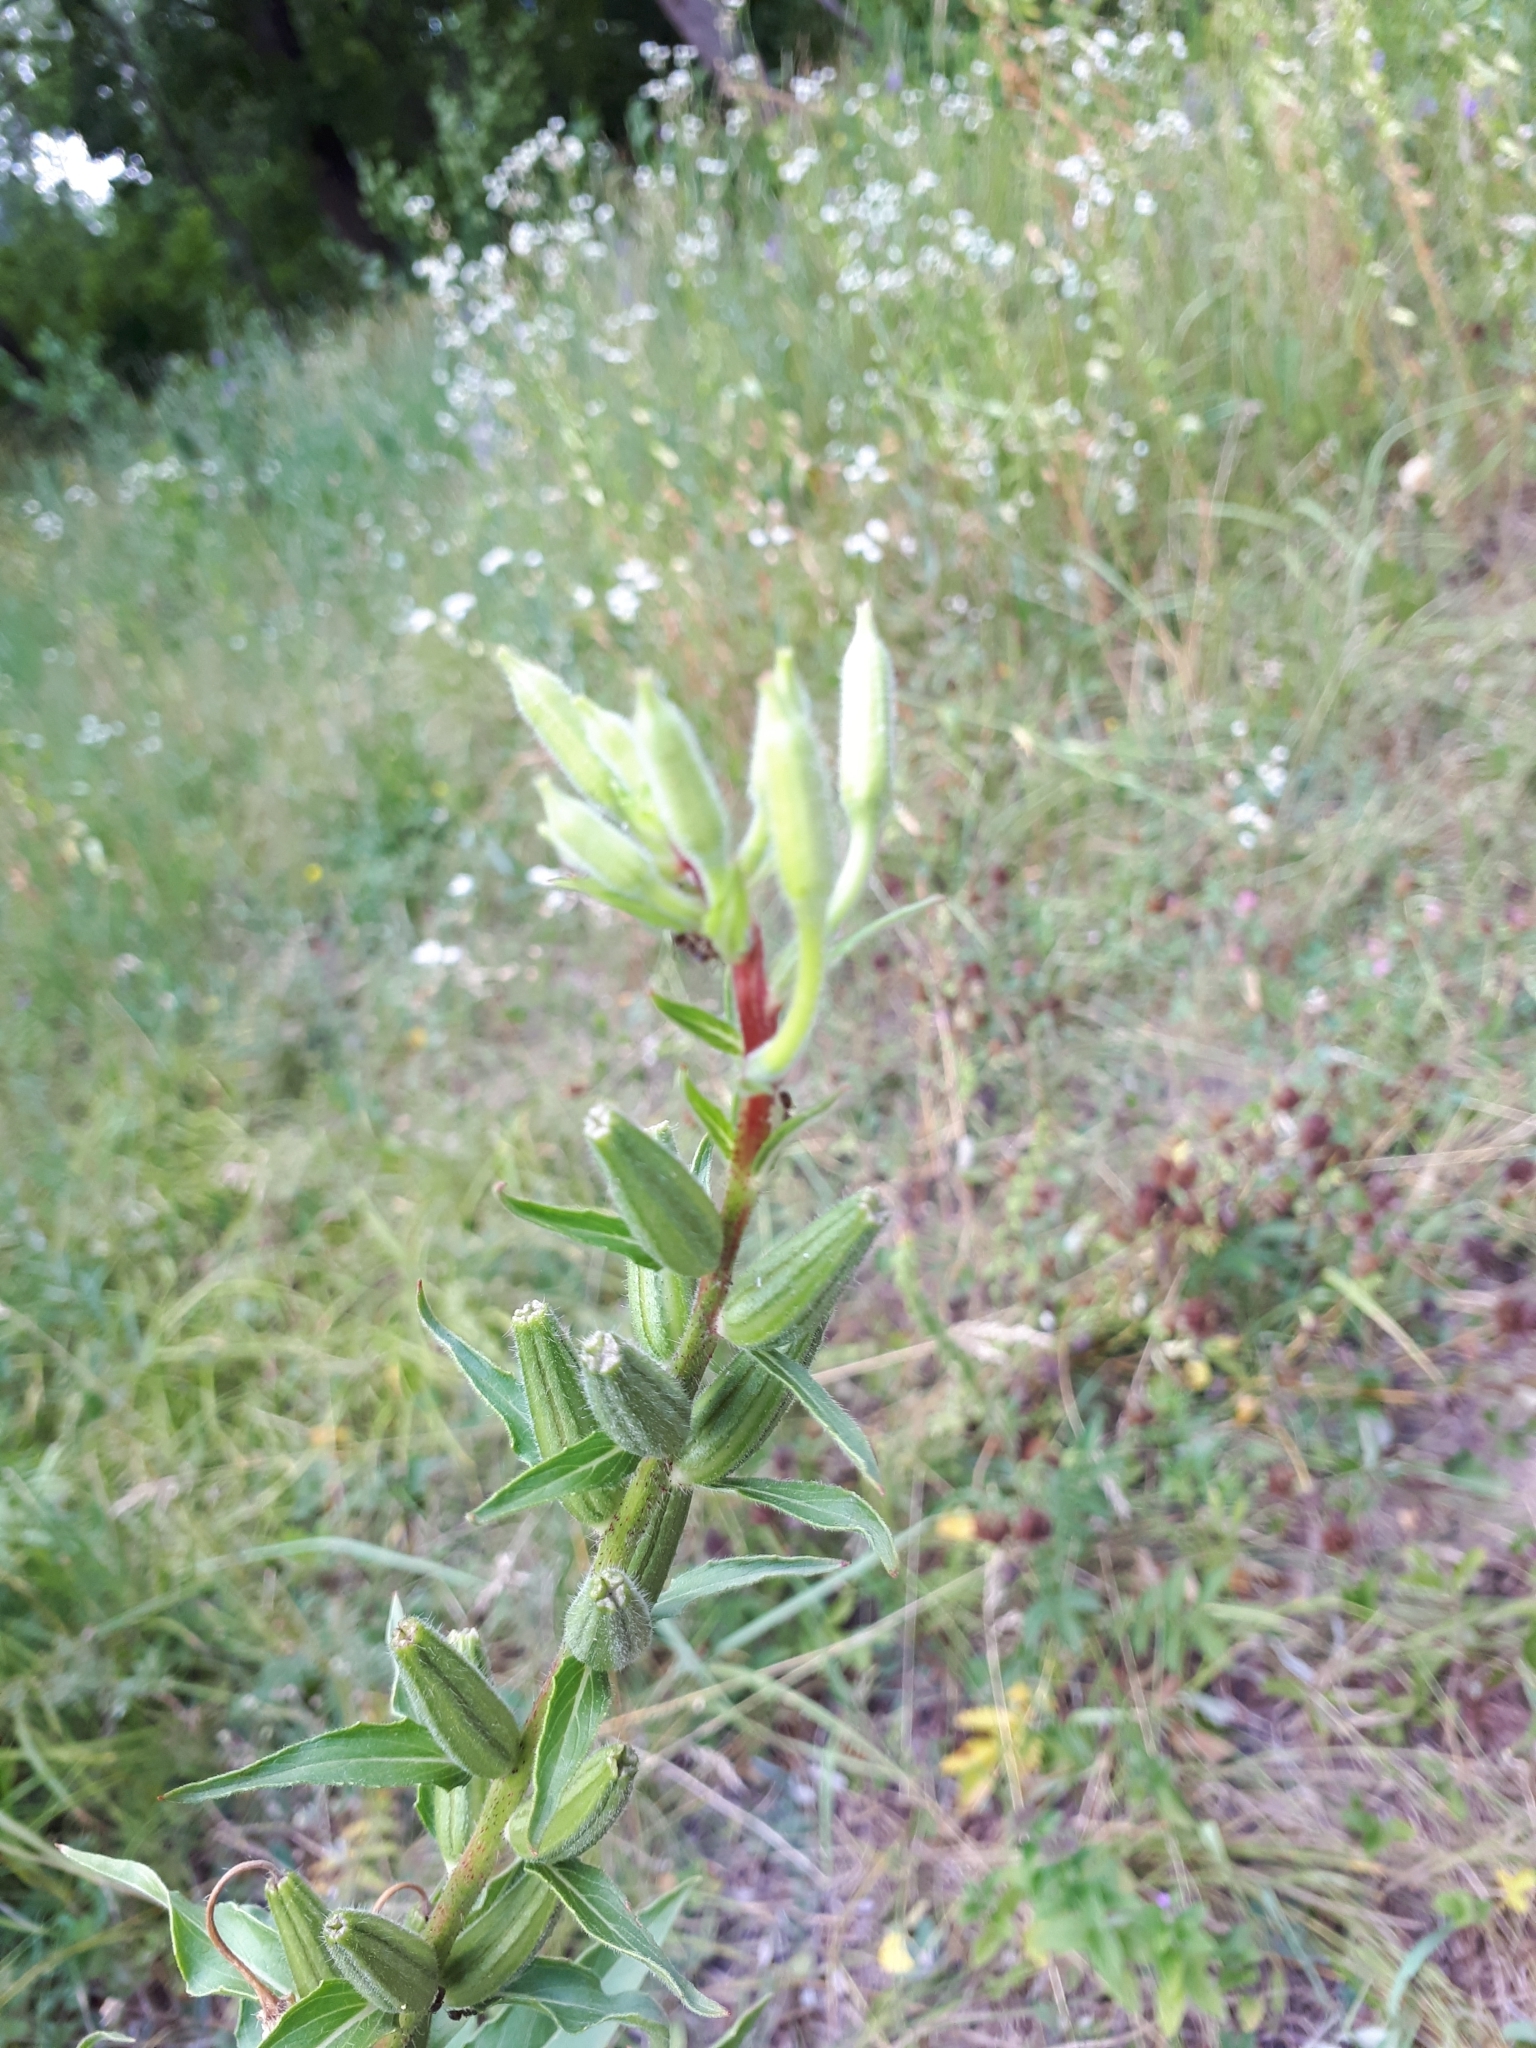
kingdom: Plantae
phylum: Tracheophyta
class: Magnoliopsida
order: Myrtales
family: Onagraceae
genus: Oenothera
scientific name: Oenothera biennis
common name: Common evening-primrose
